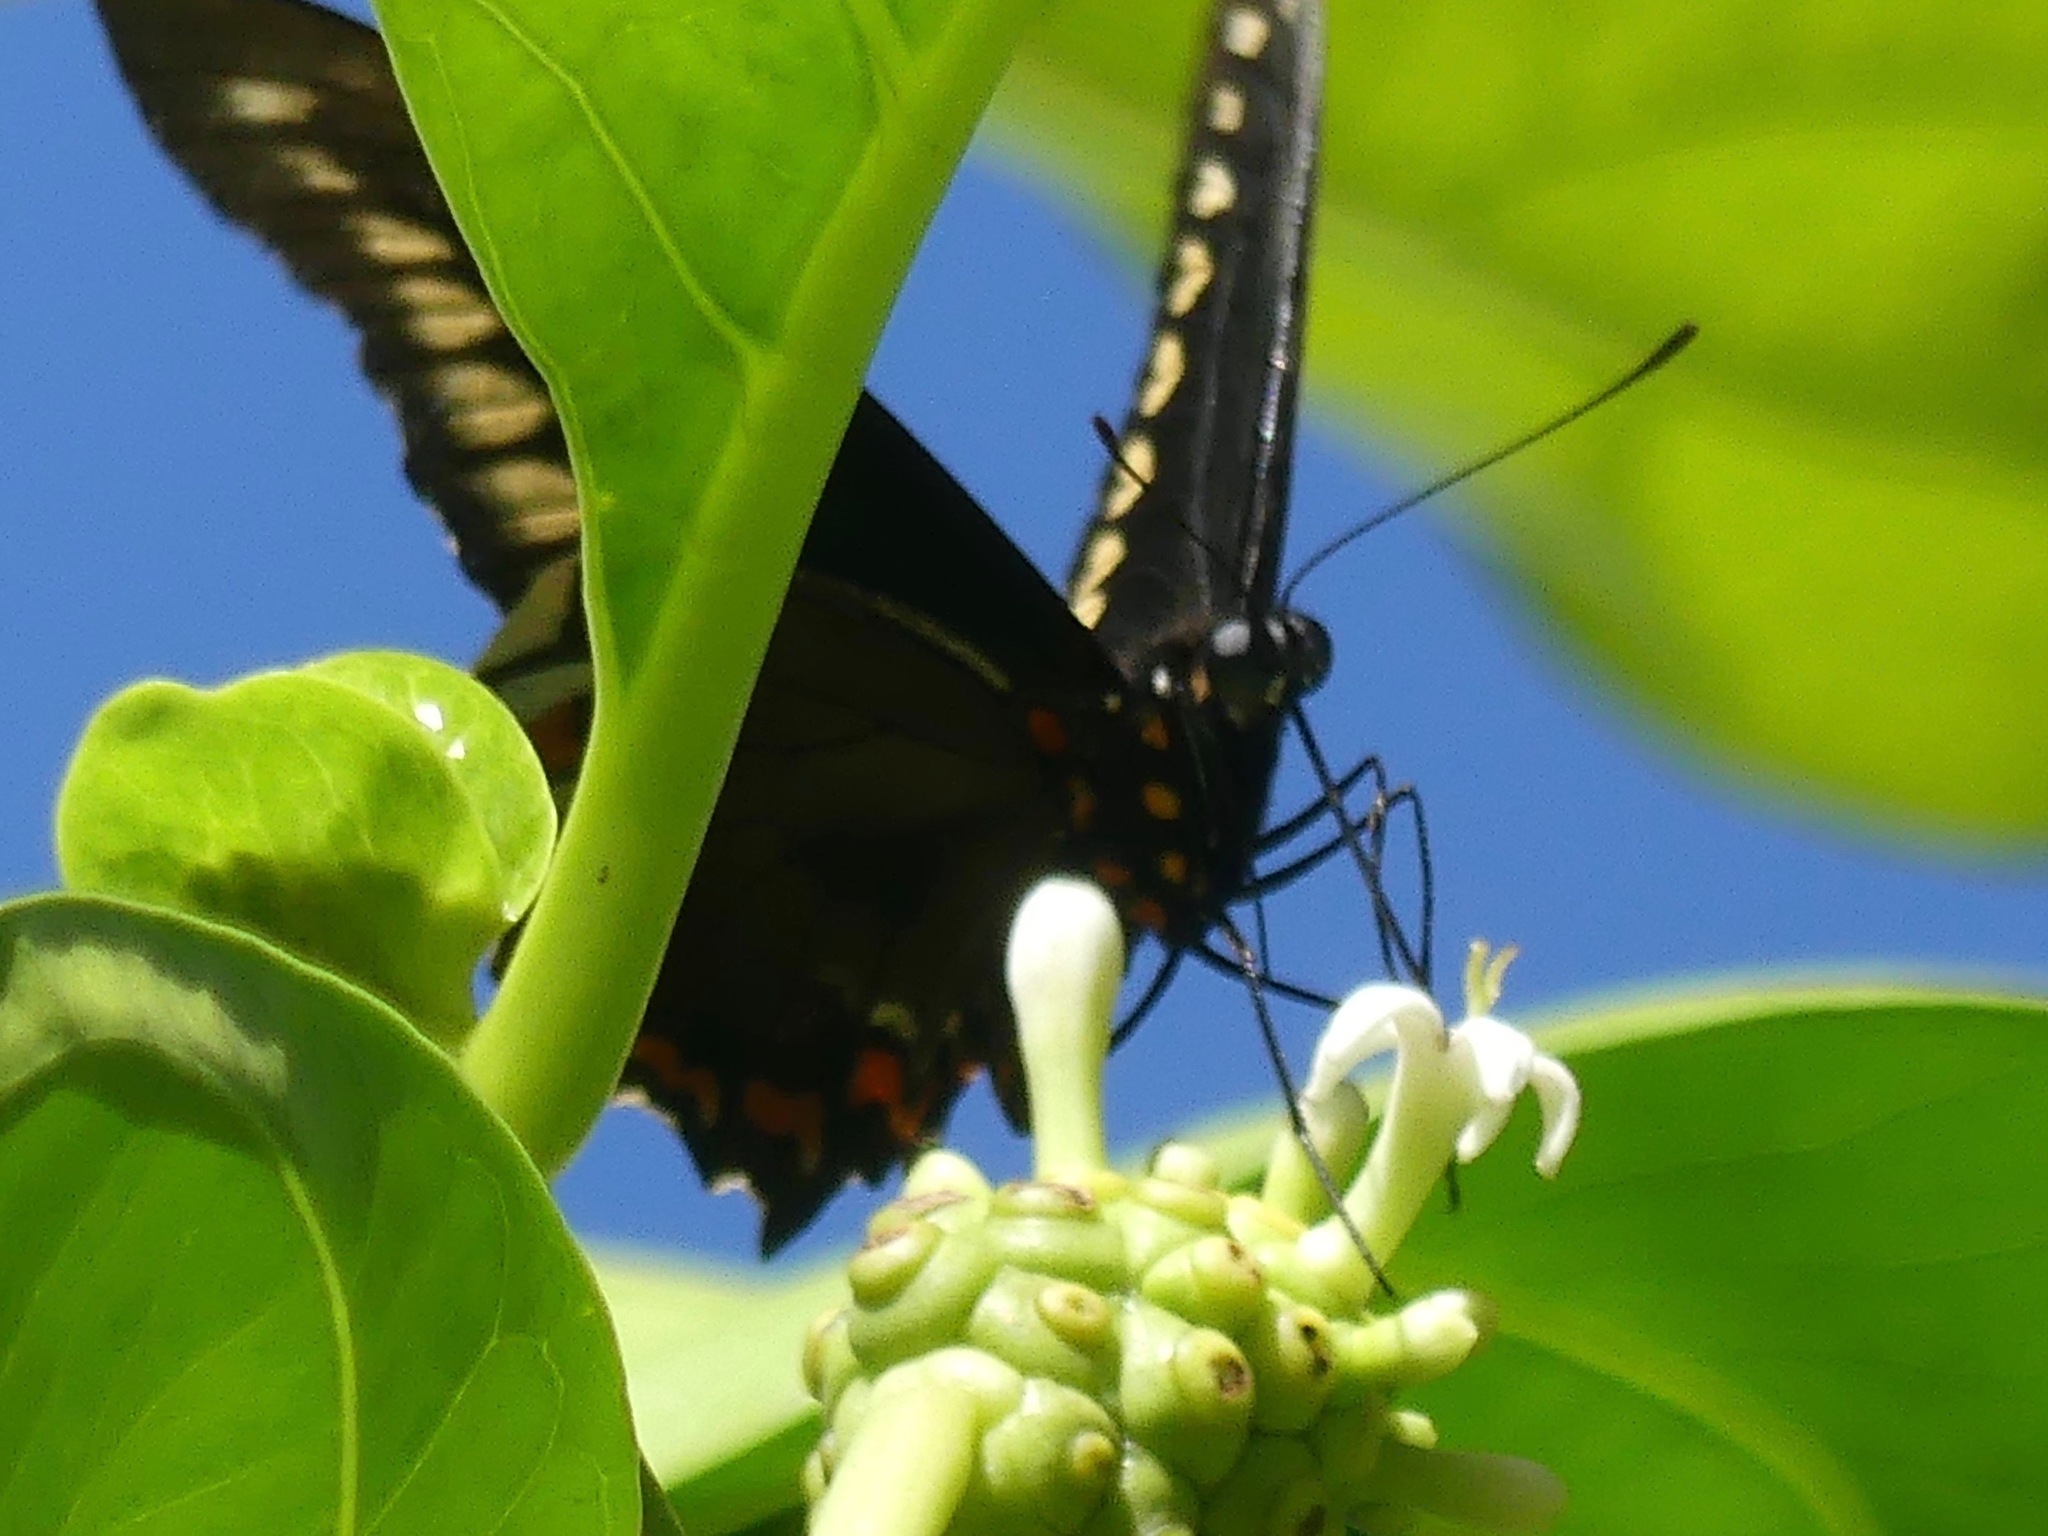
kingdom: Animalia
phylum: Arthropoda
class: Insecta
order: Lepidoptera
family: Papilionidae
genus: Battus
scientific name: Battus polydamas
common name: Polydamas swallowtail
